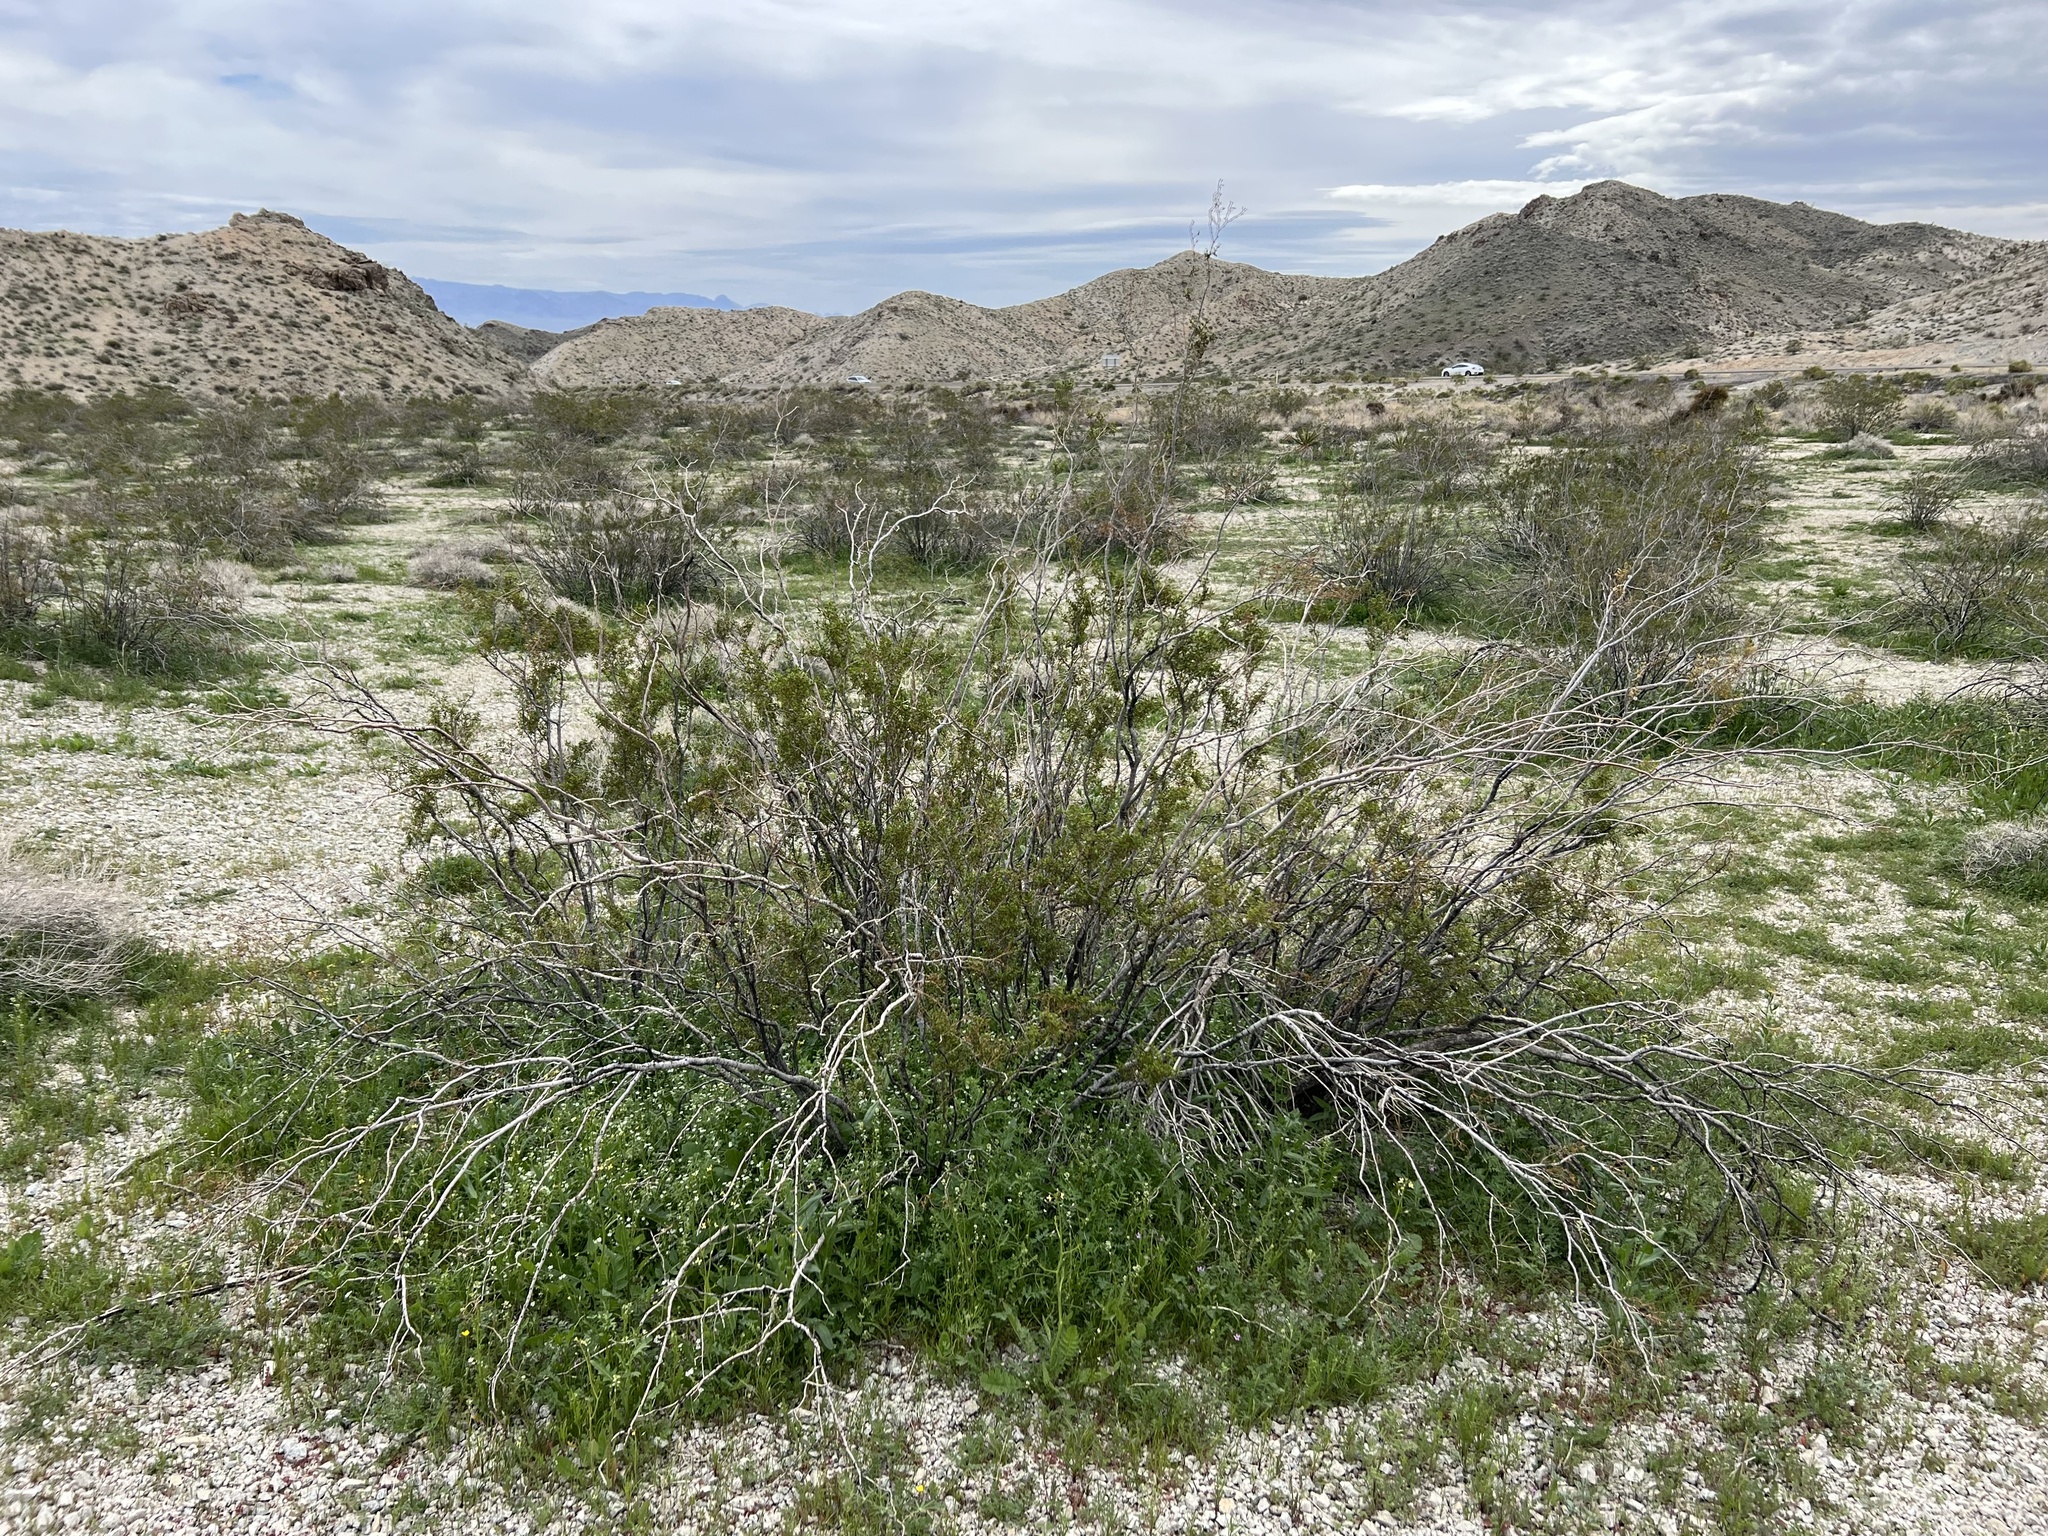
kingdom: Plantae
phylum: Tracheophyta
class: Magnoliopsida
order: Zygophyllales
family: Zygophyllaceae
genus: Larrea
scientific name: Larrea tridentata
